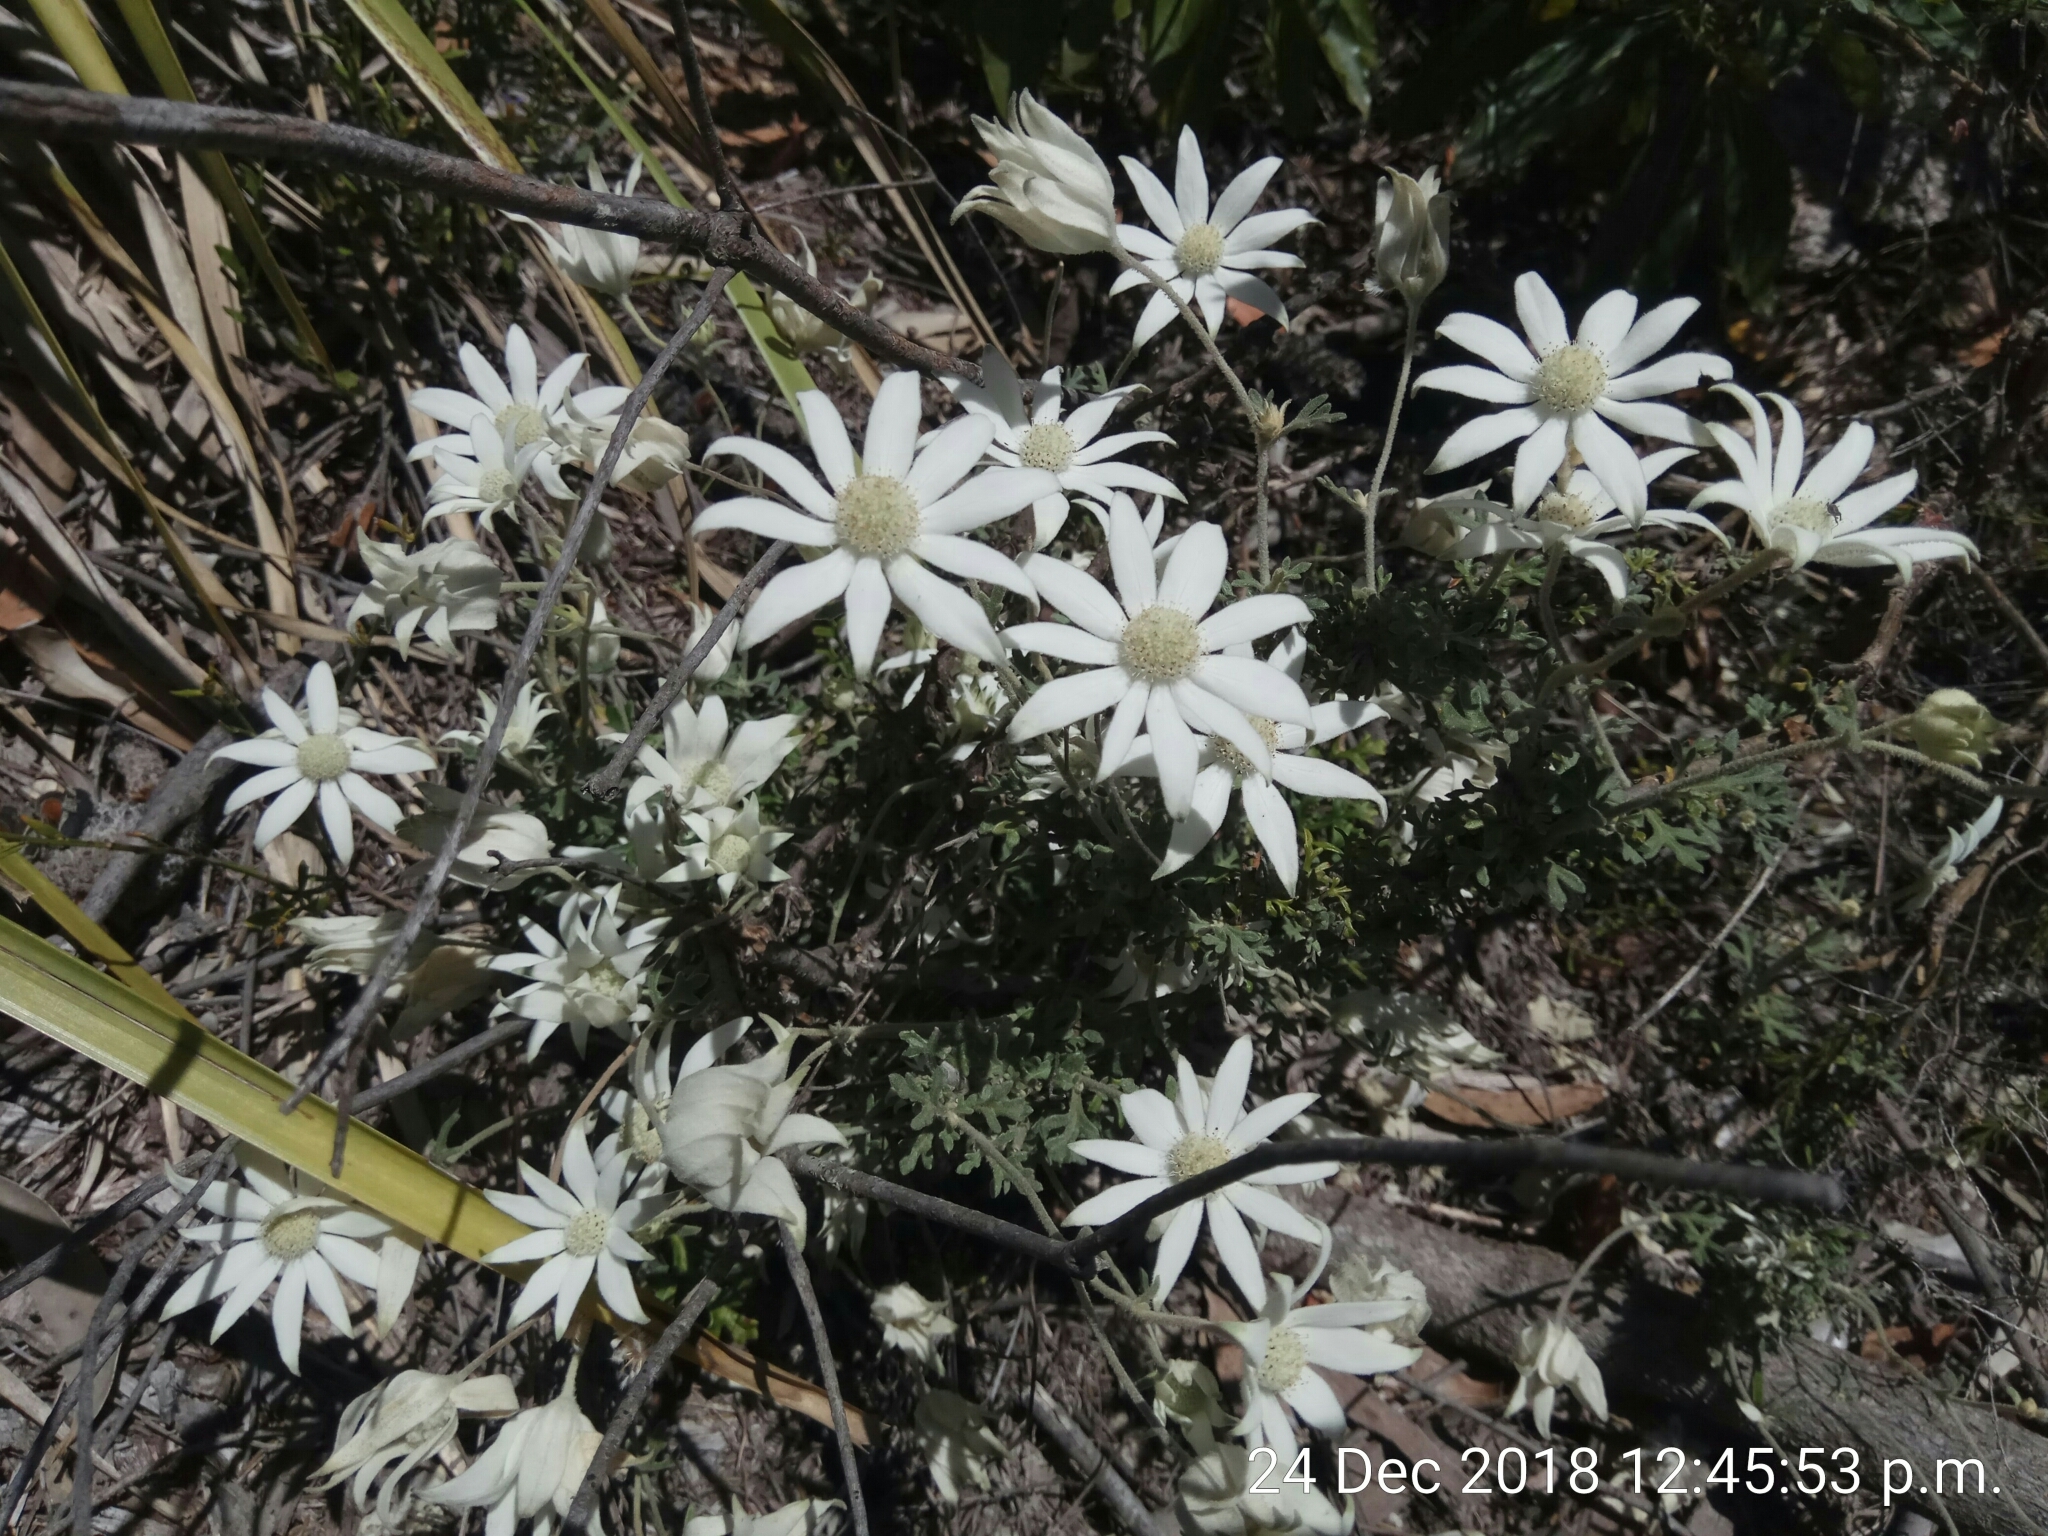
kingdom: Plantae
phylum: Tracheophyta
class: Magnoliopsida
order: Apiales
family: Apiaceae
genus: Actinotus
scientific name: Actinotus helianthi
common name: Flannel-flower
